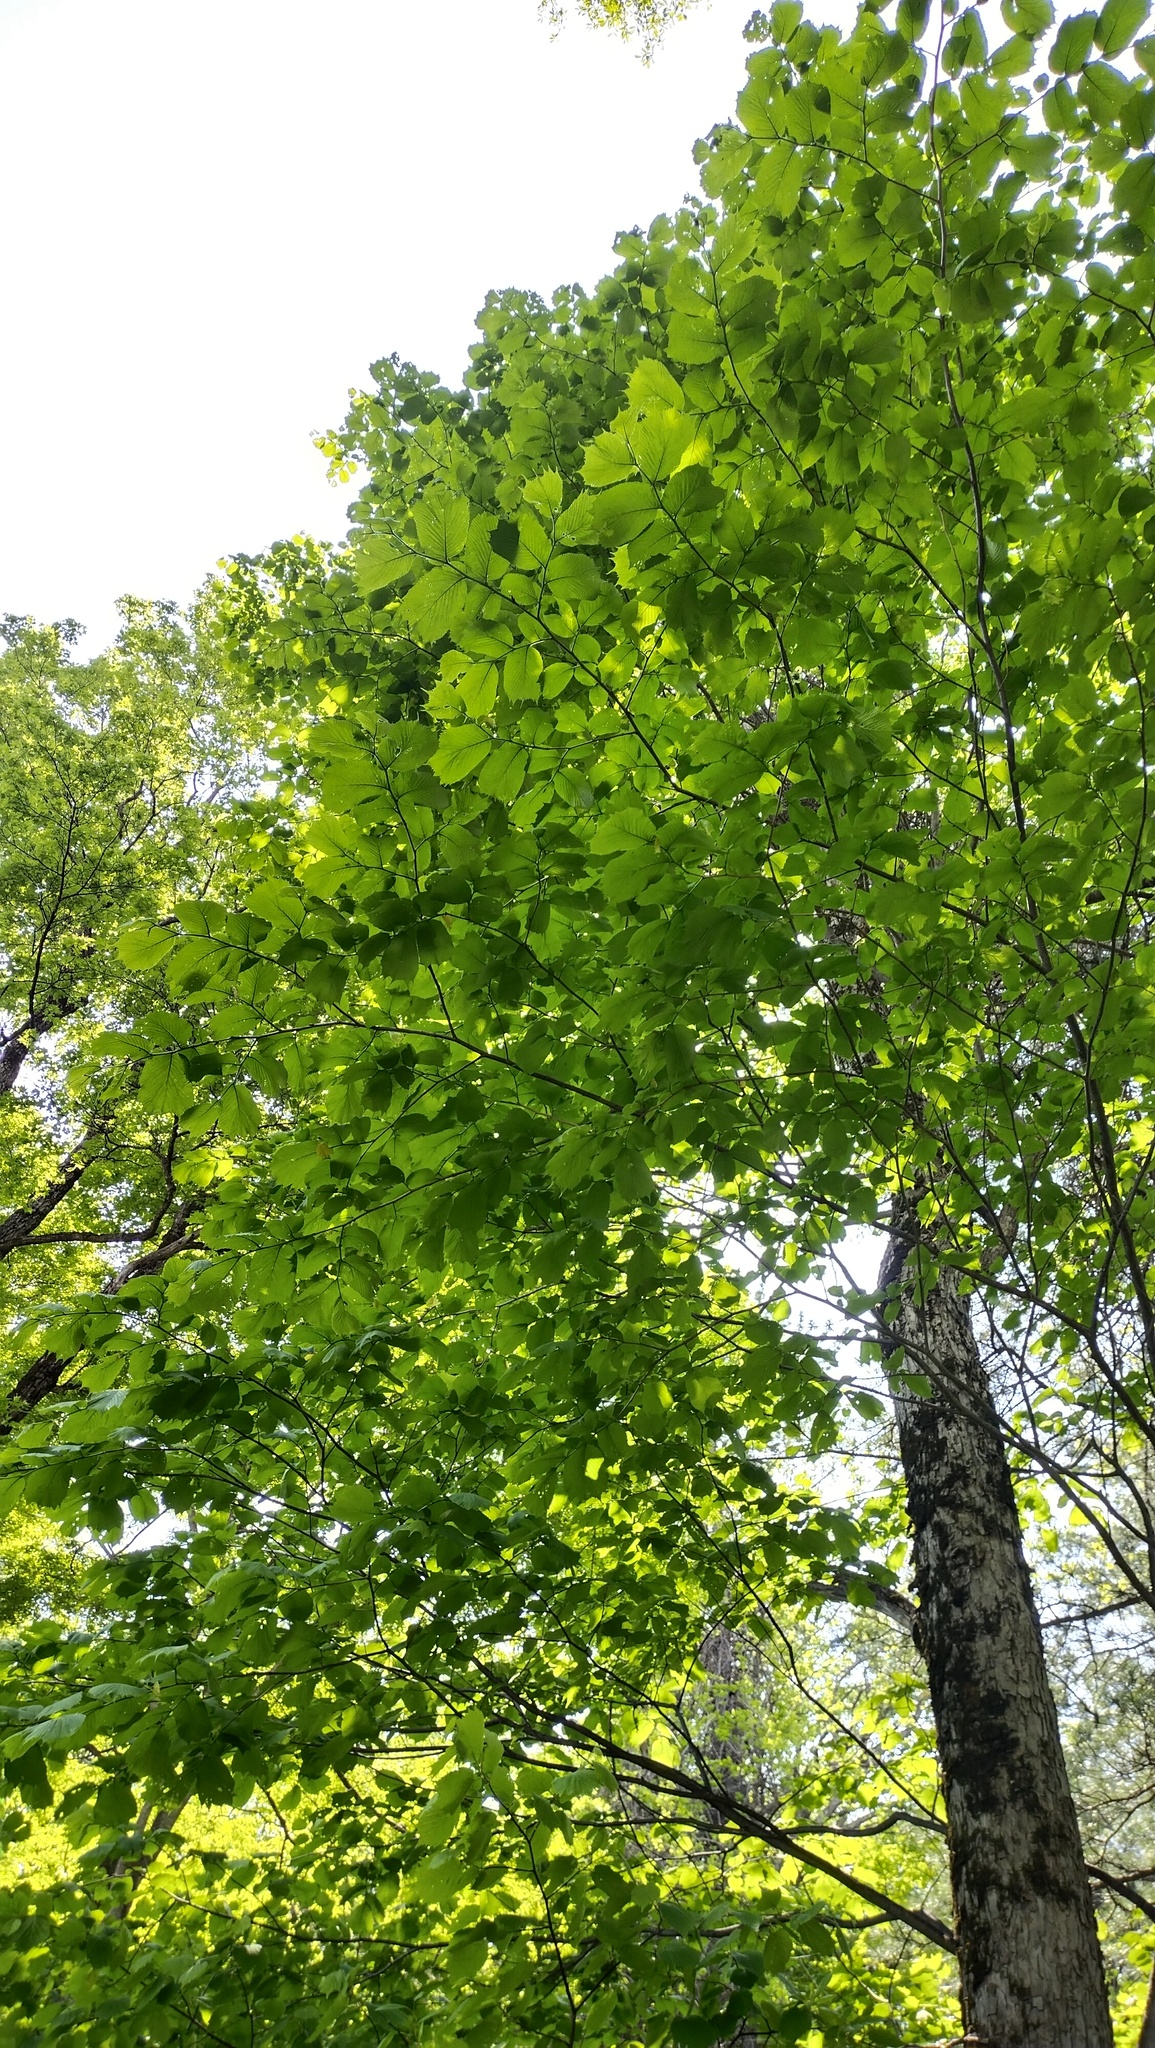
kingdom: Plantae
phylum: Tracheophyta
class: Magnoliopsida
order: Rosales
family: Ulmaceae
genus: Ulmus
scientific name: Ulmus laciniata
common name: Japanese elm
